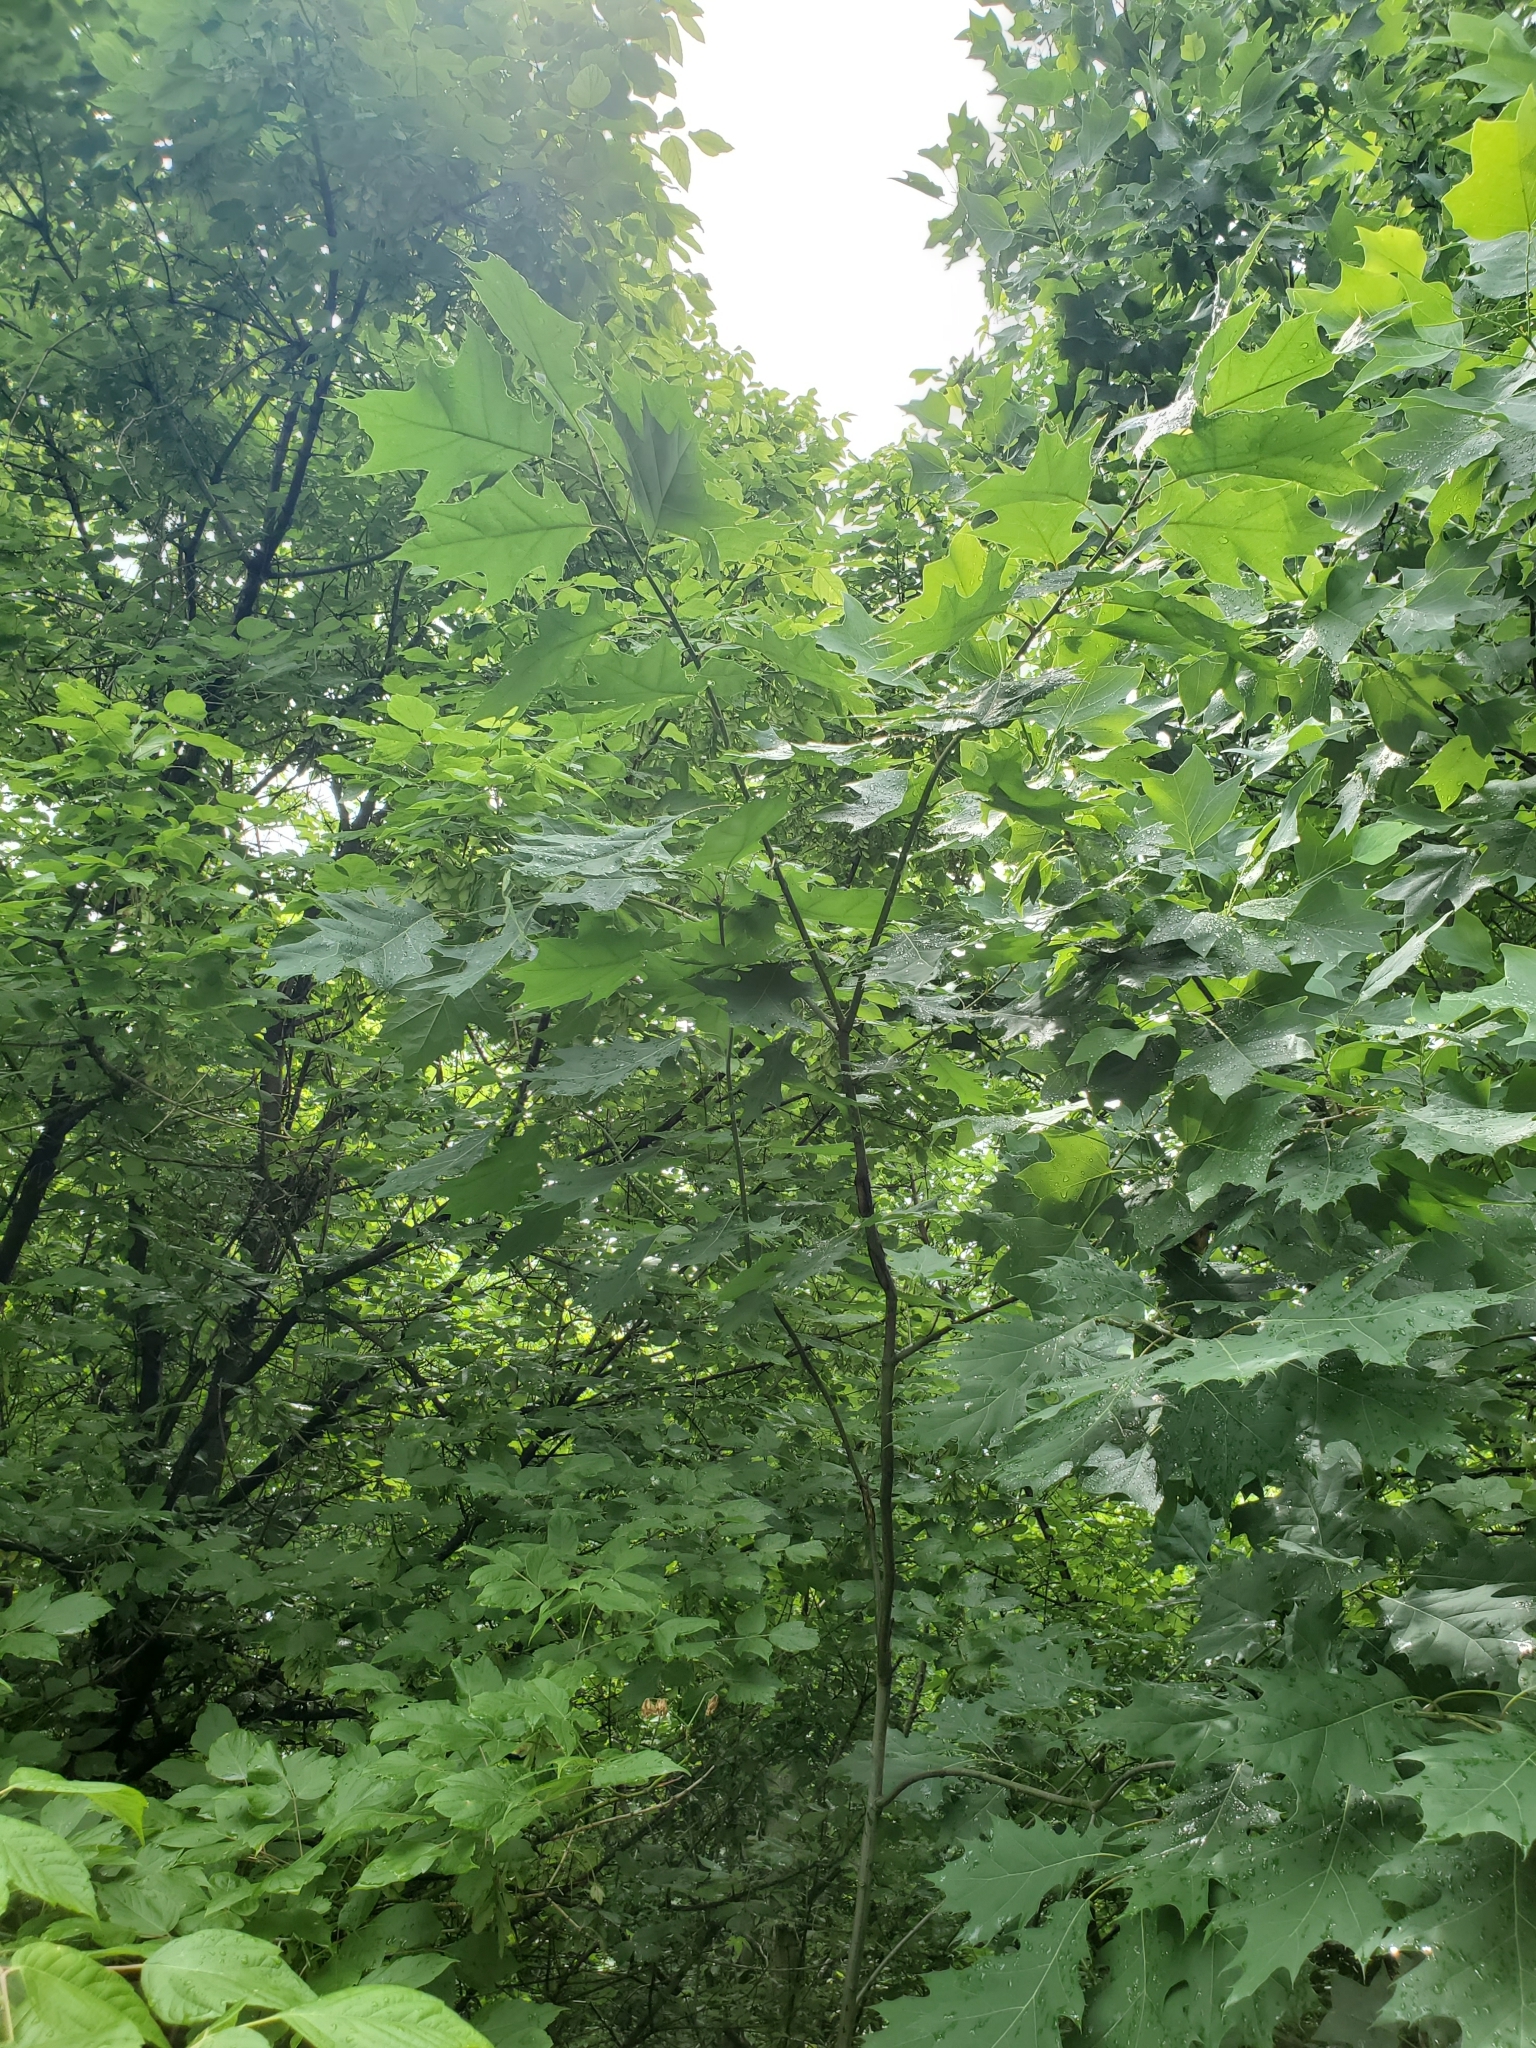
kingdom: Plantae
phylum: Tracheophyta
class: Magnoliopsida
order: Fagales
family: Fagaceae
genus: Quercus
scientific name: Quercus rubra
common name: Red oak
